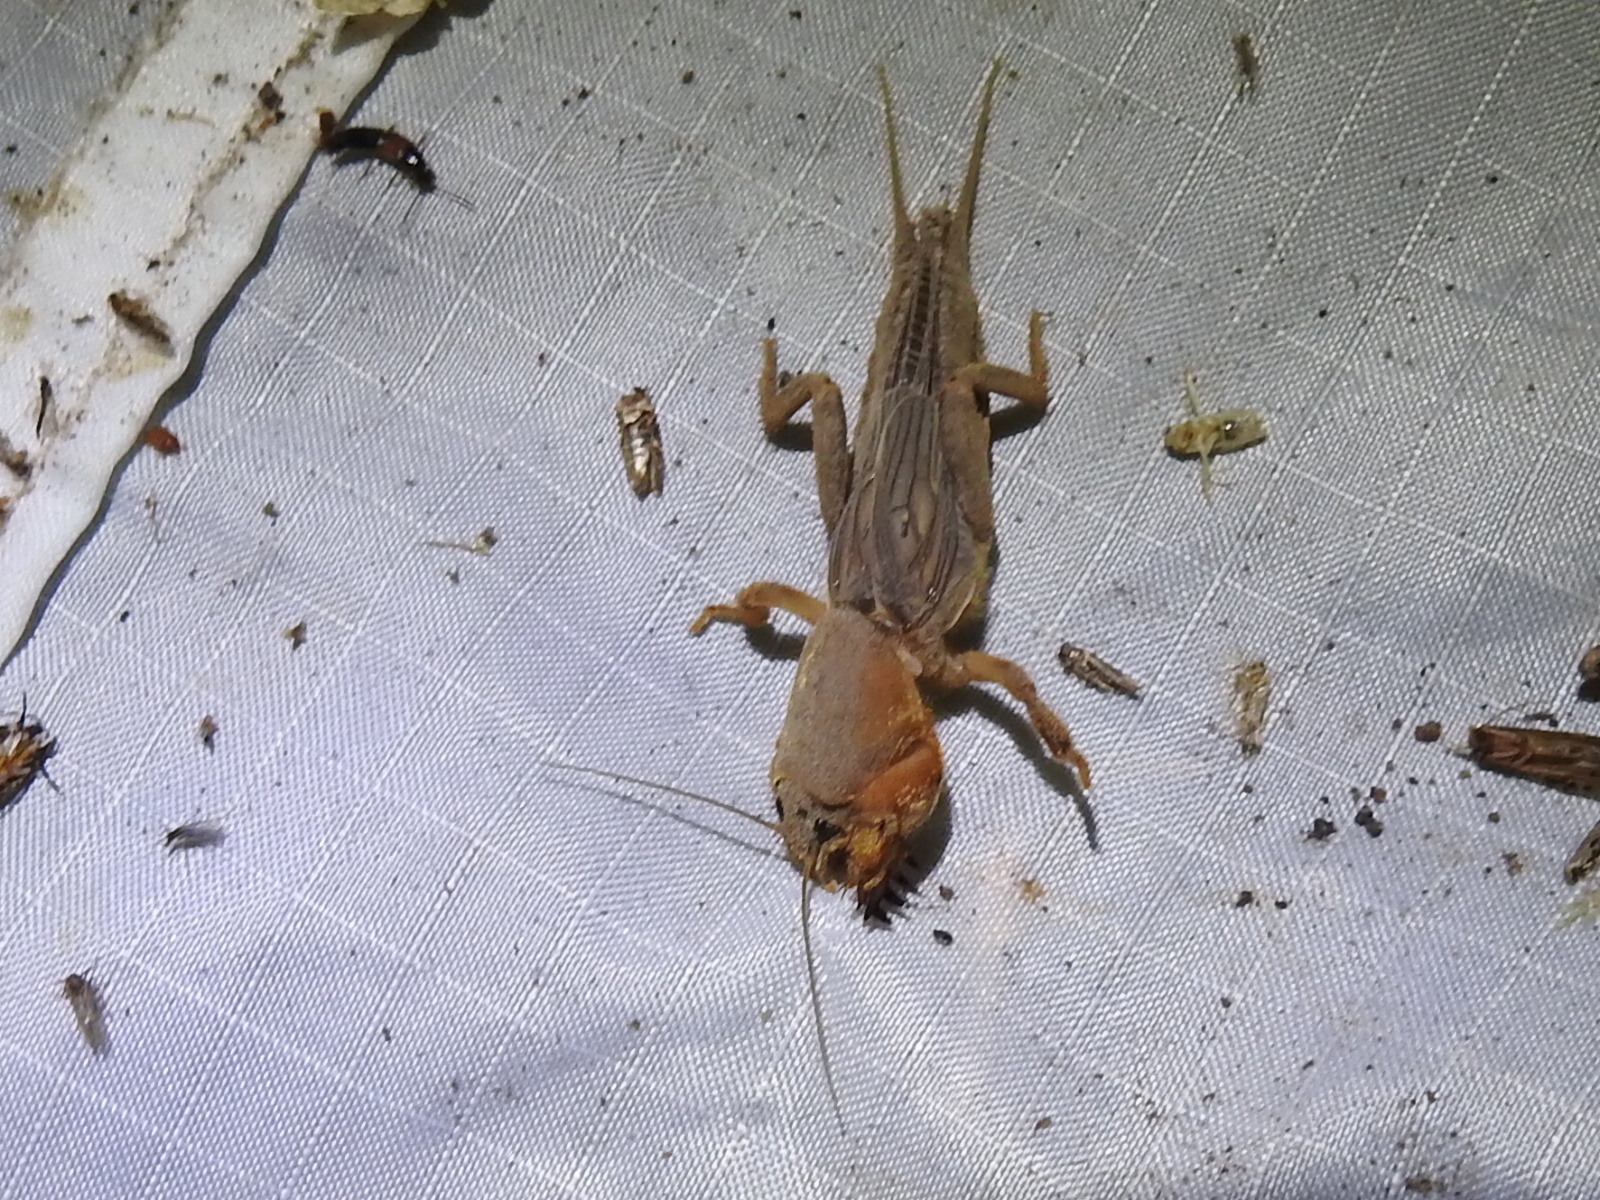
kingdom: Animalia
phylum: Arthropoda
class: Insecta
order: Orthoptera
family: Gryllotalpidae
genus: Neocurtilla
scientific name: Neocurtilla hexadactyla
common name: Northern mole cricket
